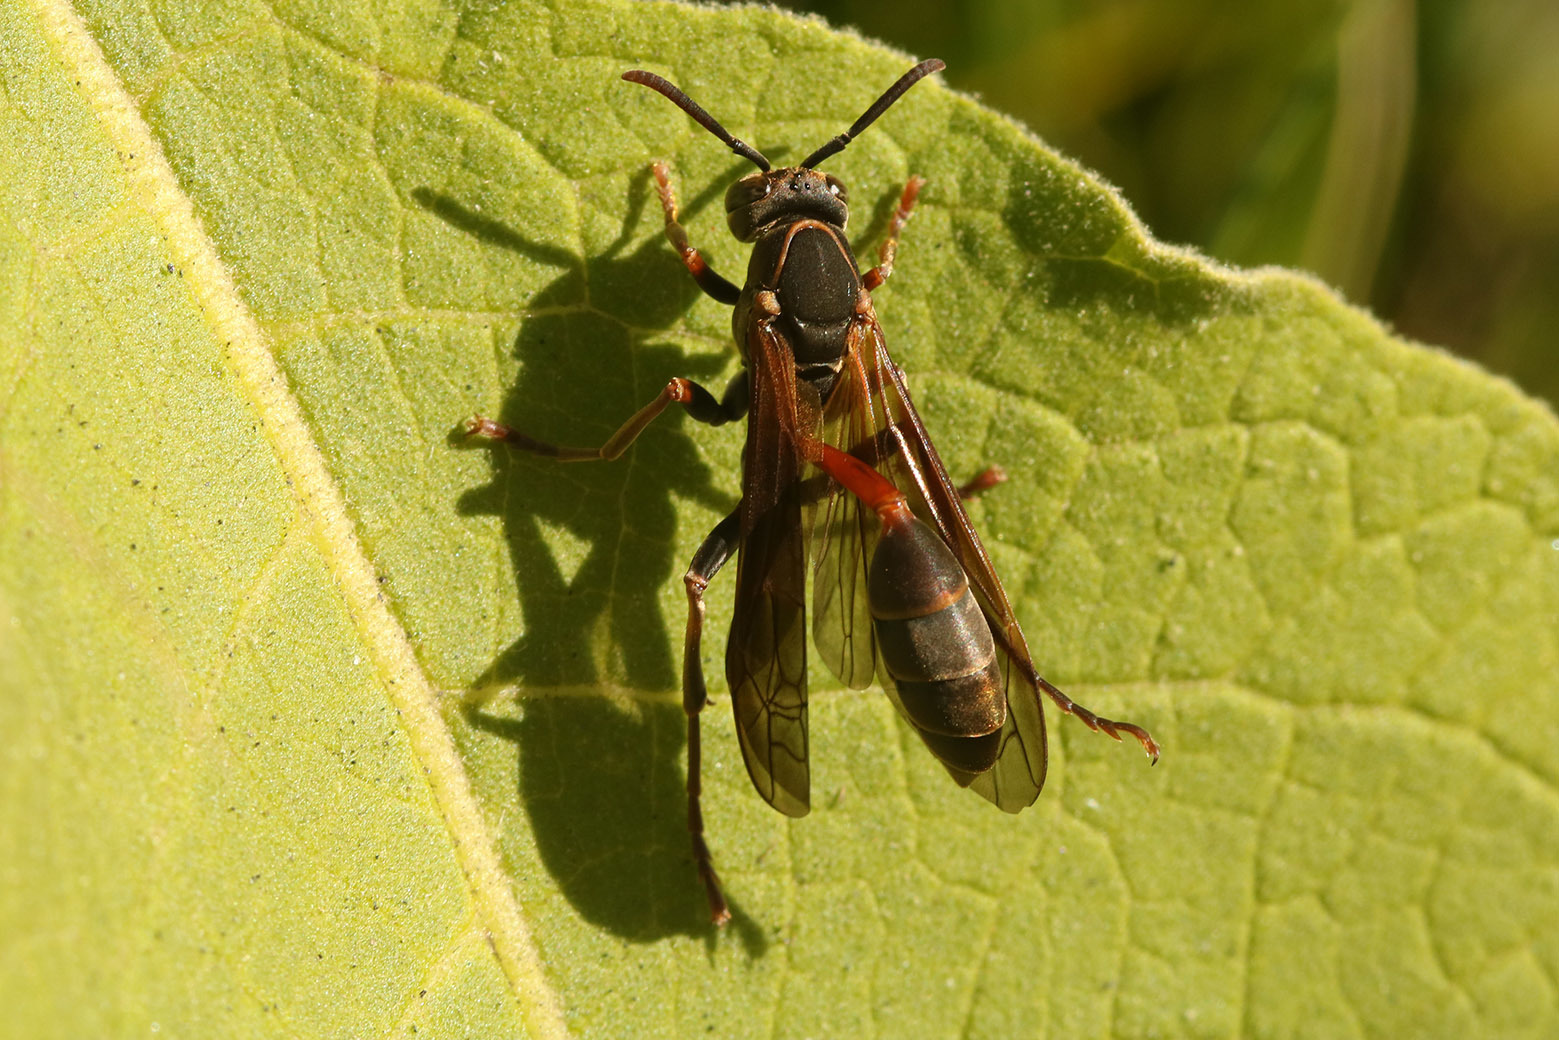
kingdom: Animalia
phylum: Arthropoda
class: Insecta
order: Hymenoptera
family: Vespidae
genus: Mischocyttarus
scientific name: Mischocyttarus drewseni
